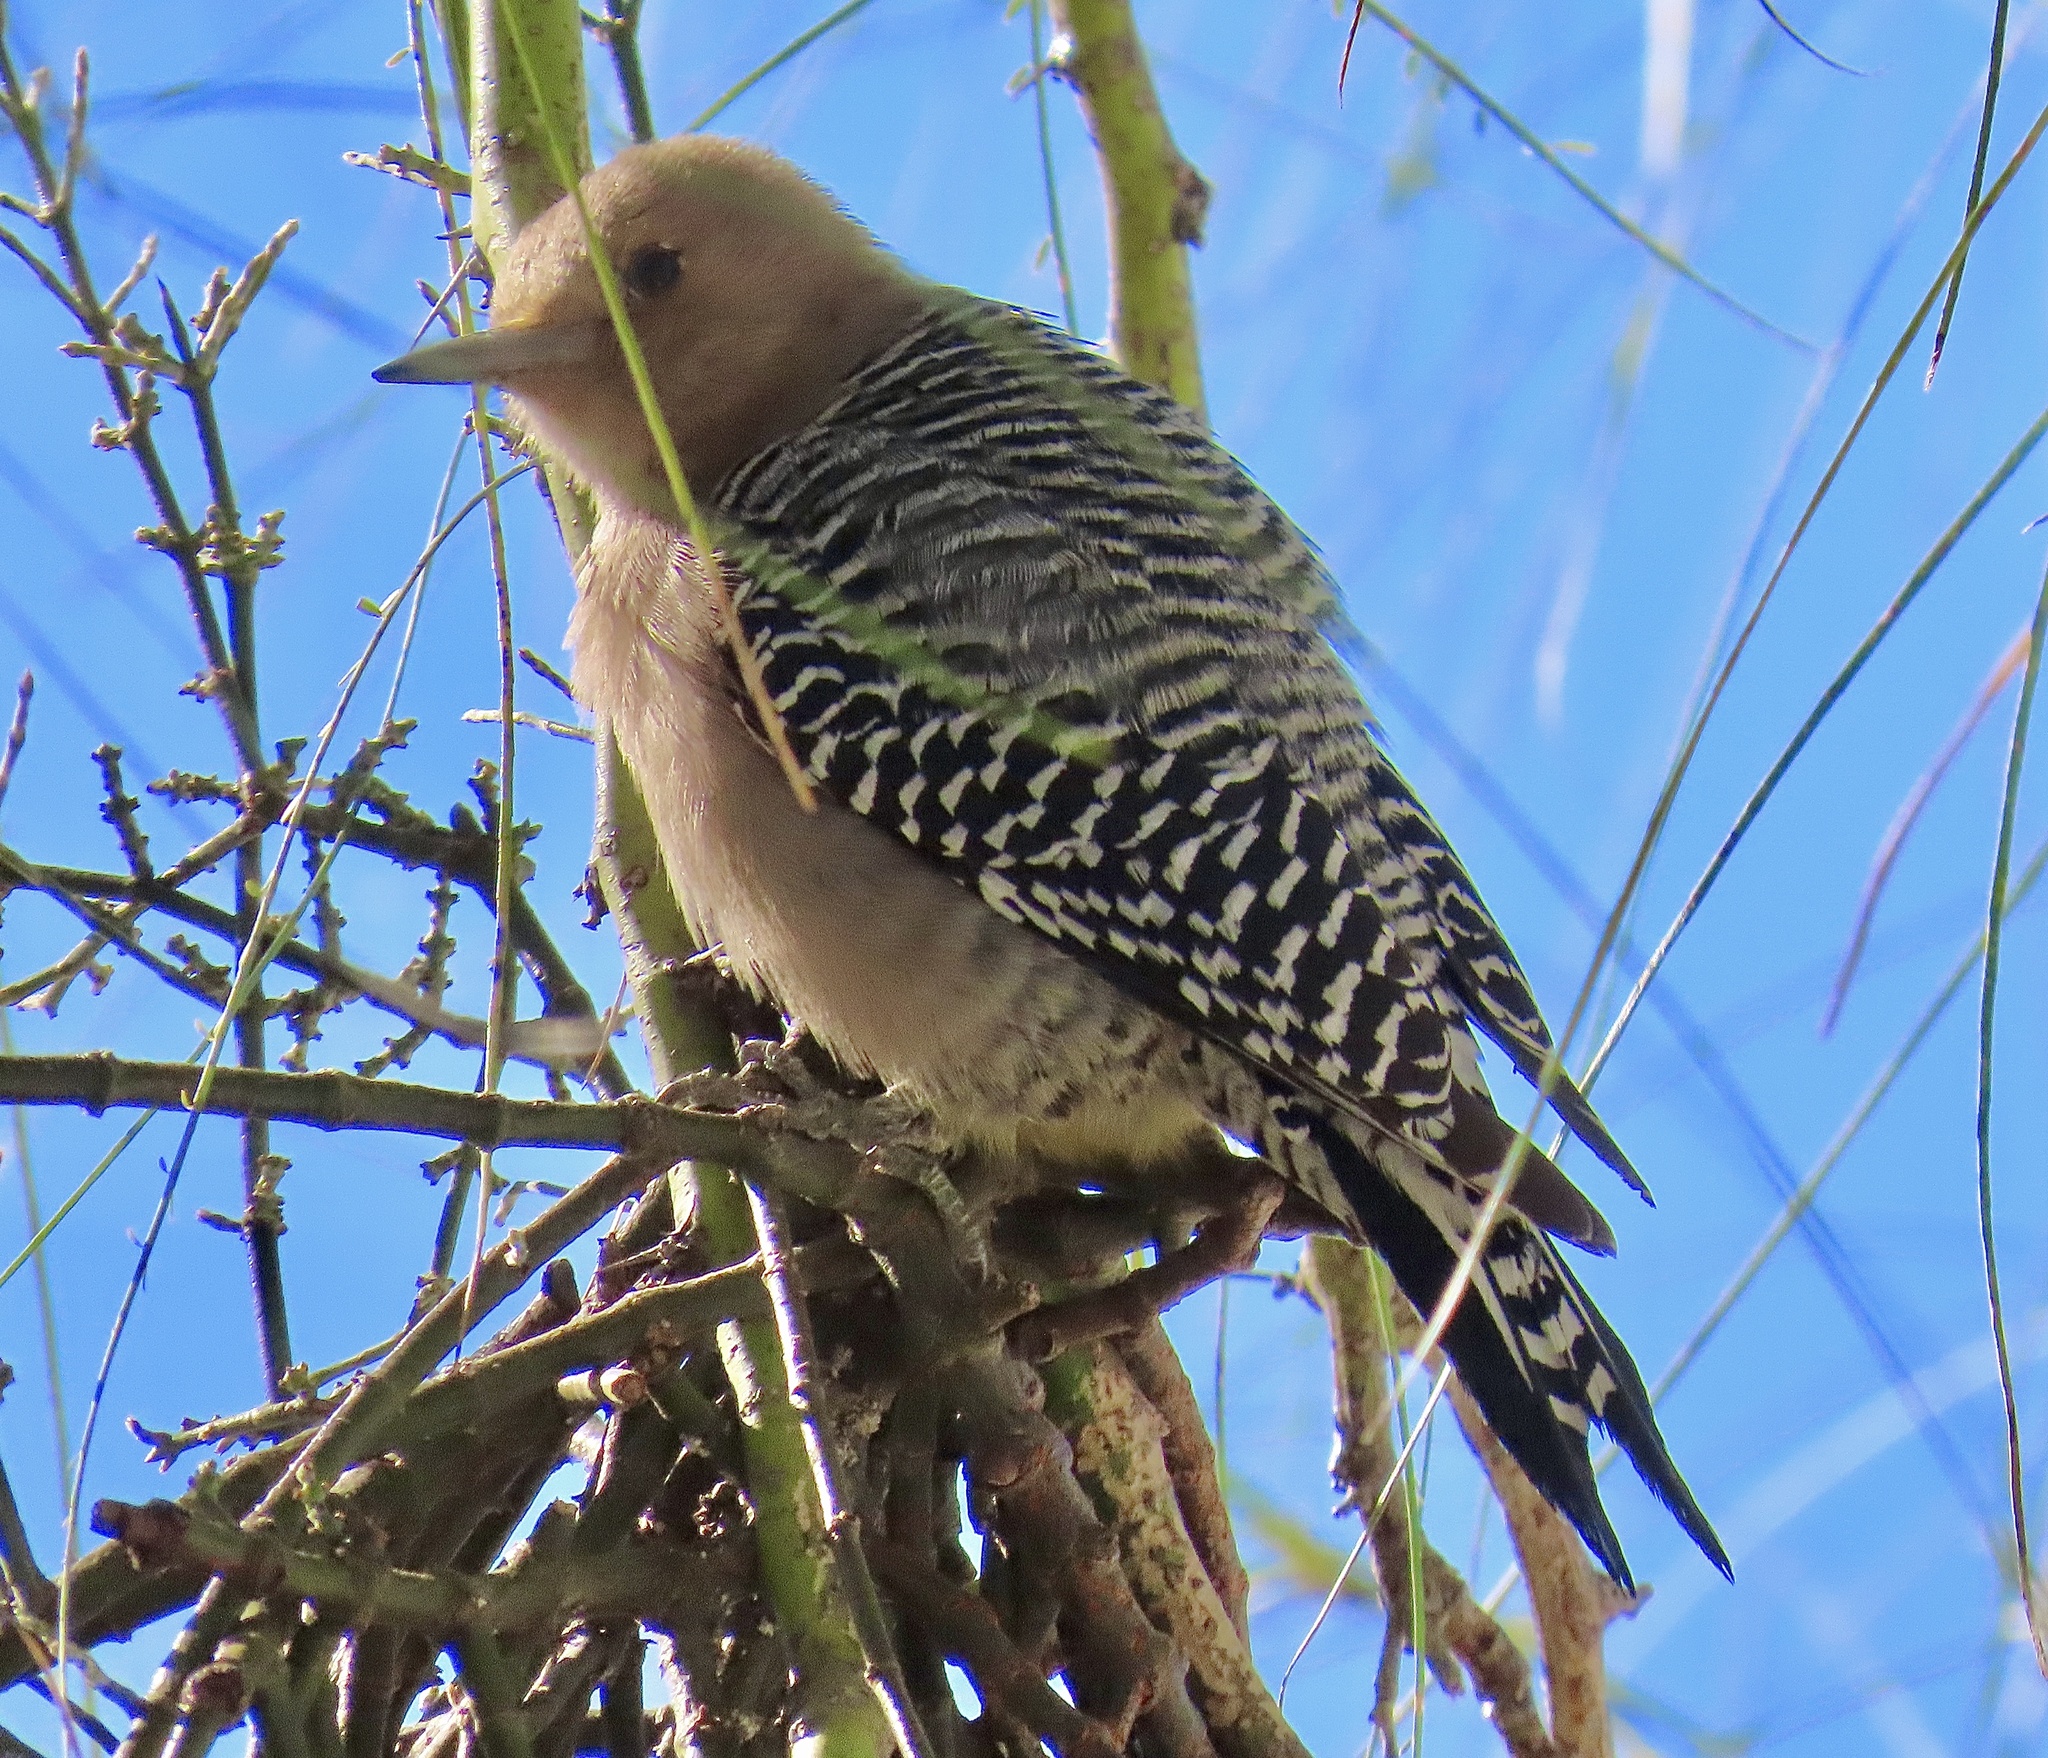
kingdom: Animalia
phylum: Chordata
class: Aves
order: Piciformes
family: Picidae
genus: Melanerpes
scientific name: Melanerpes uropygialis
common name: Gila woodpecker
